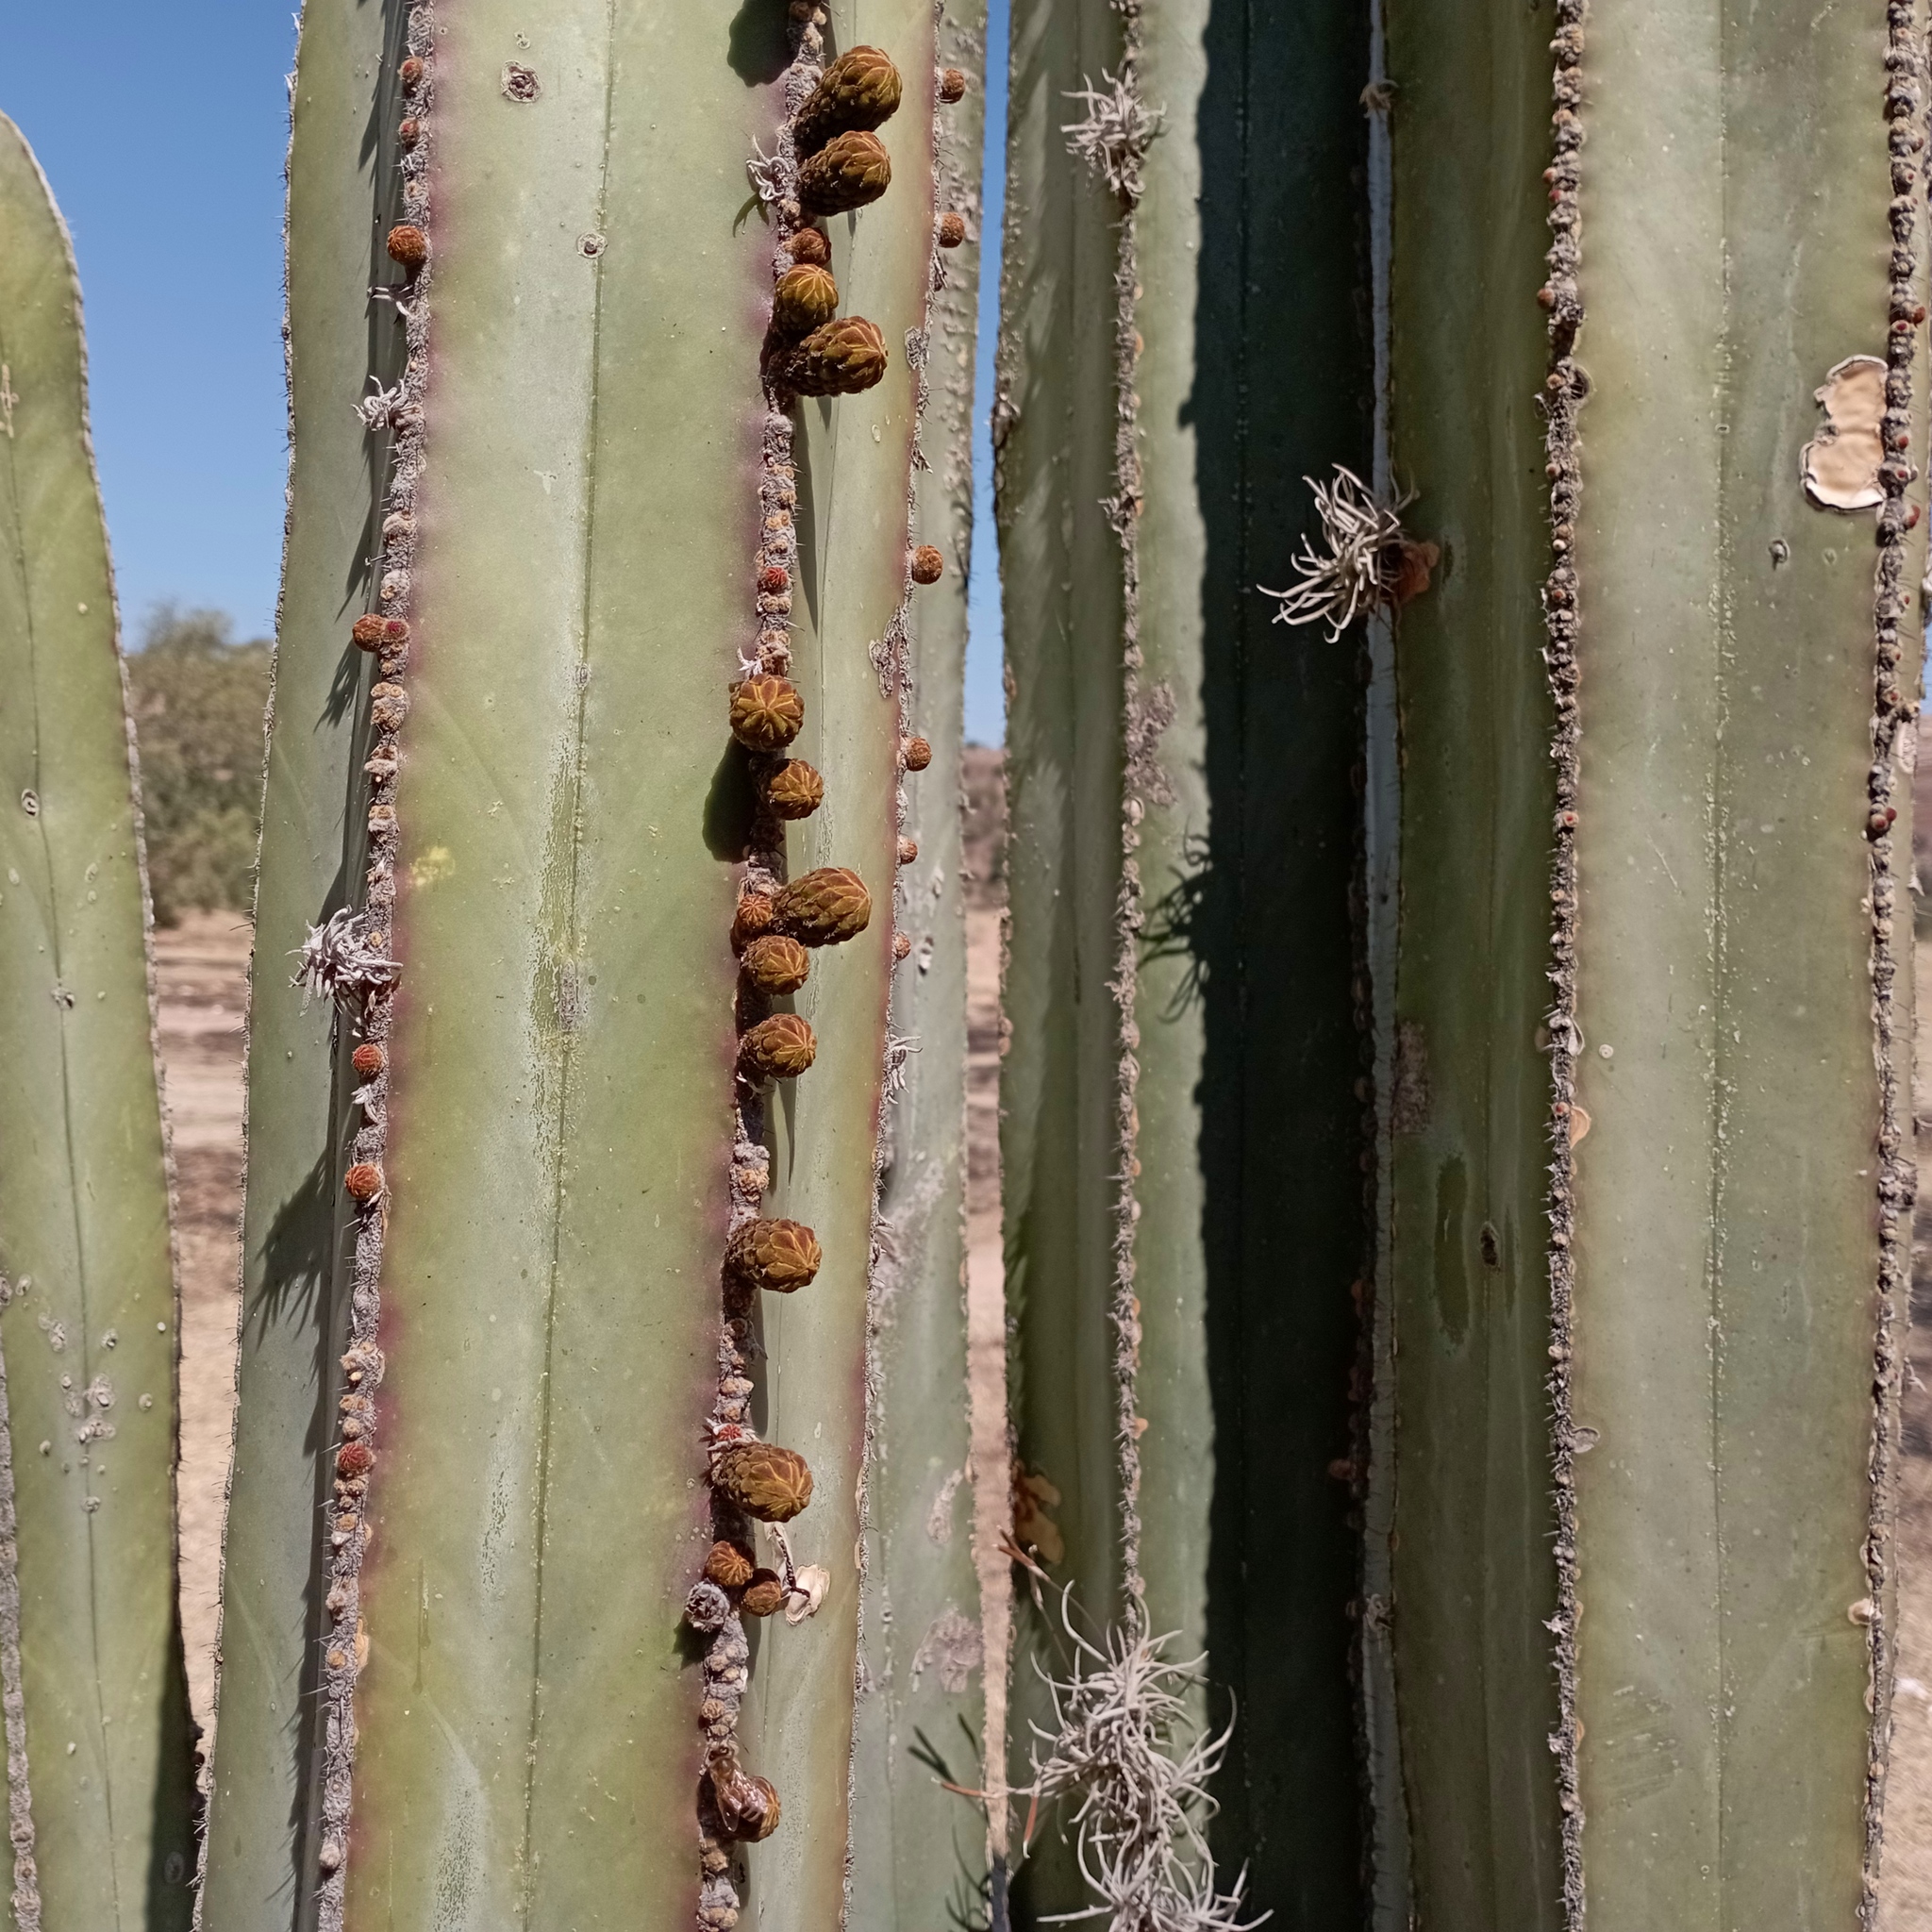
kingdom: Plantae
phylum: Tracheophyta
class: Magnoliopsida
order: Caryophyllales
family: Cactaceae
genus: Marginatocereus
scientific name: Marginatocereus marginatus
